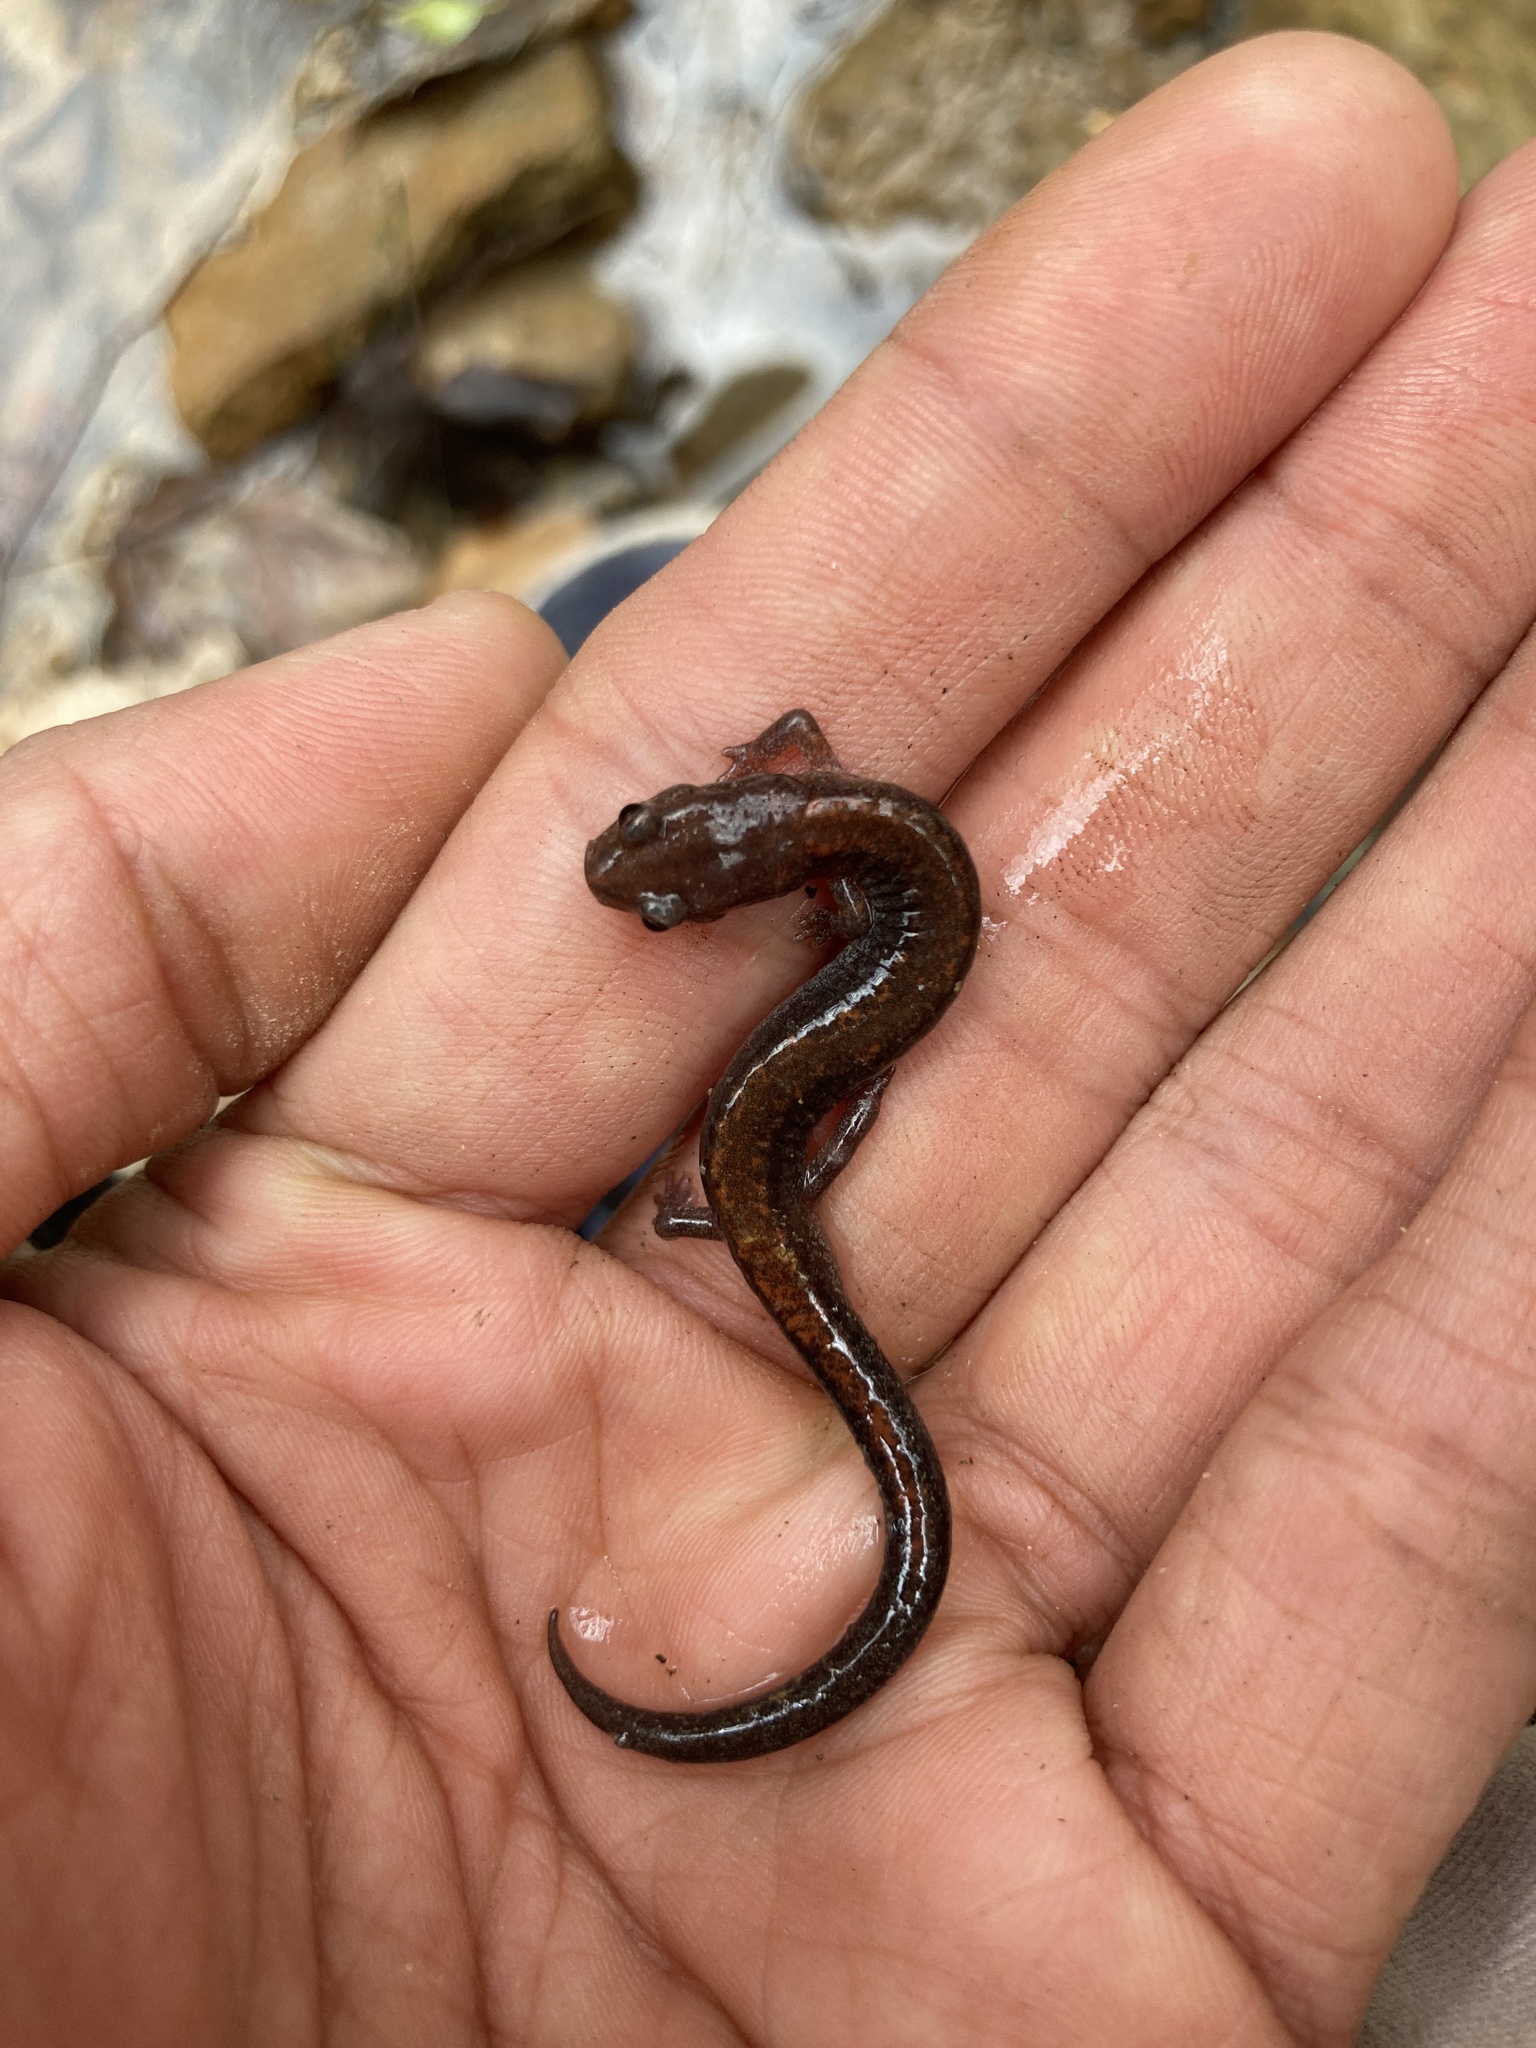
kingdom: Animalia
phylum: Chordata
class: Amphibia
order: Caudata
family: Plethodontidae
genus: Plethodon
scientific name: Plethodon cinereus
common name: Redback salamander
